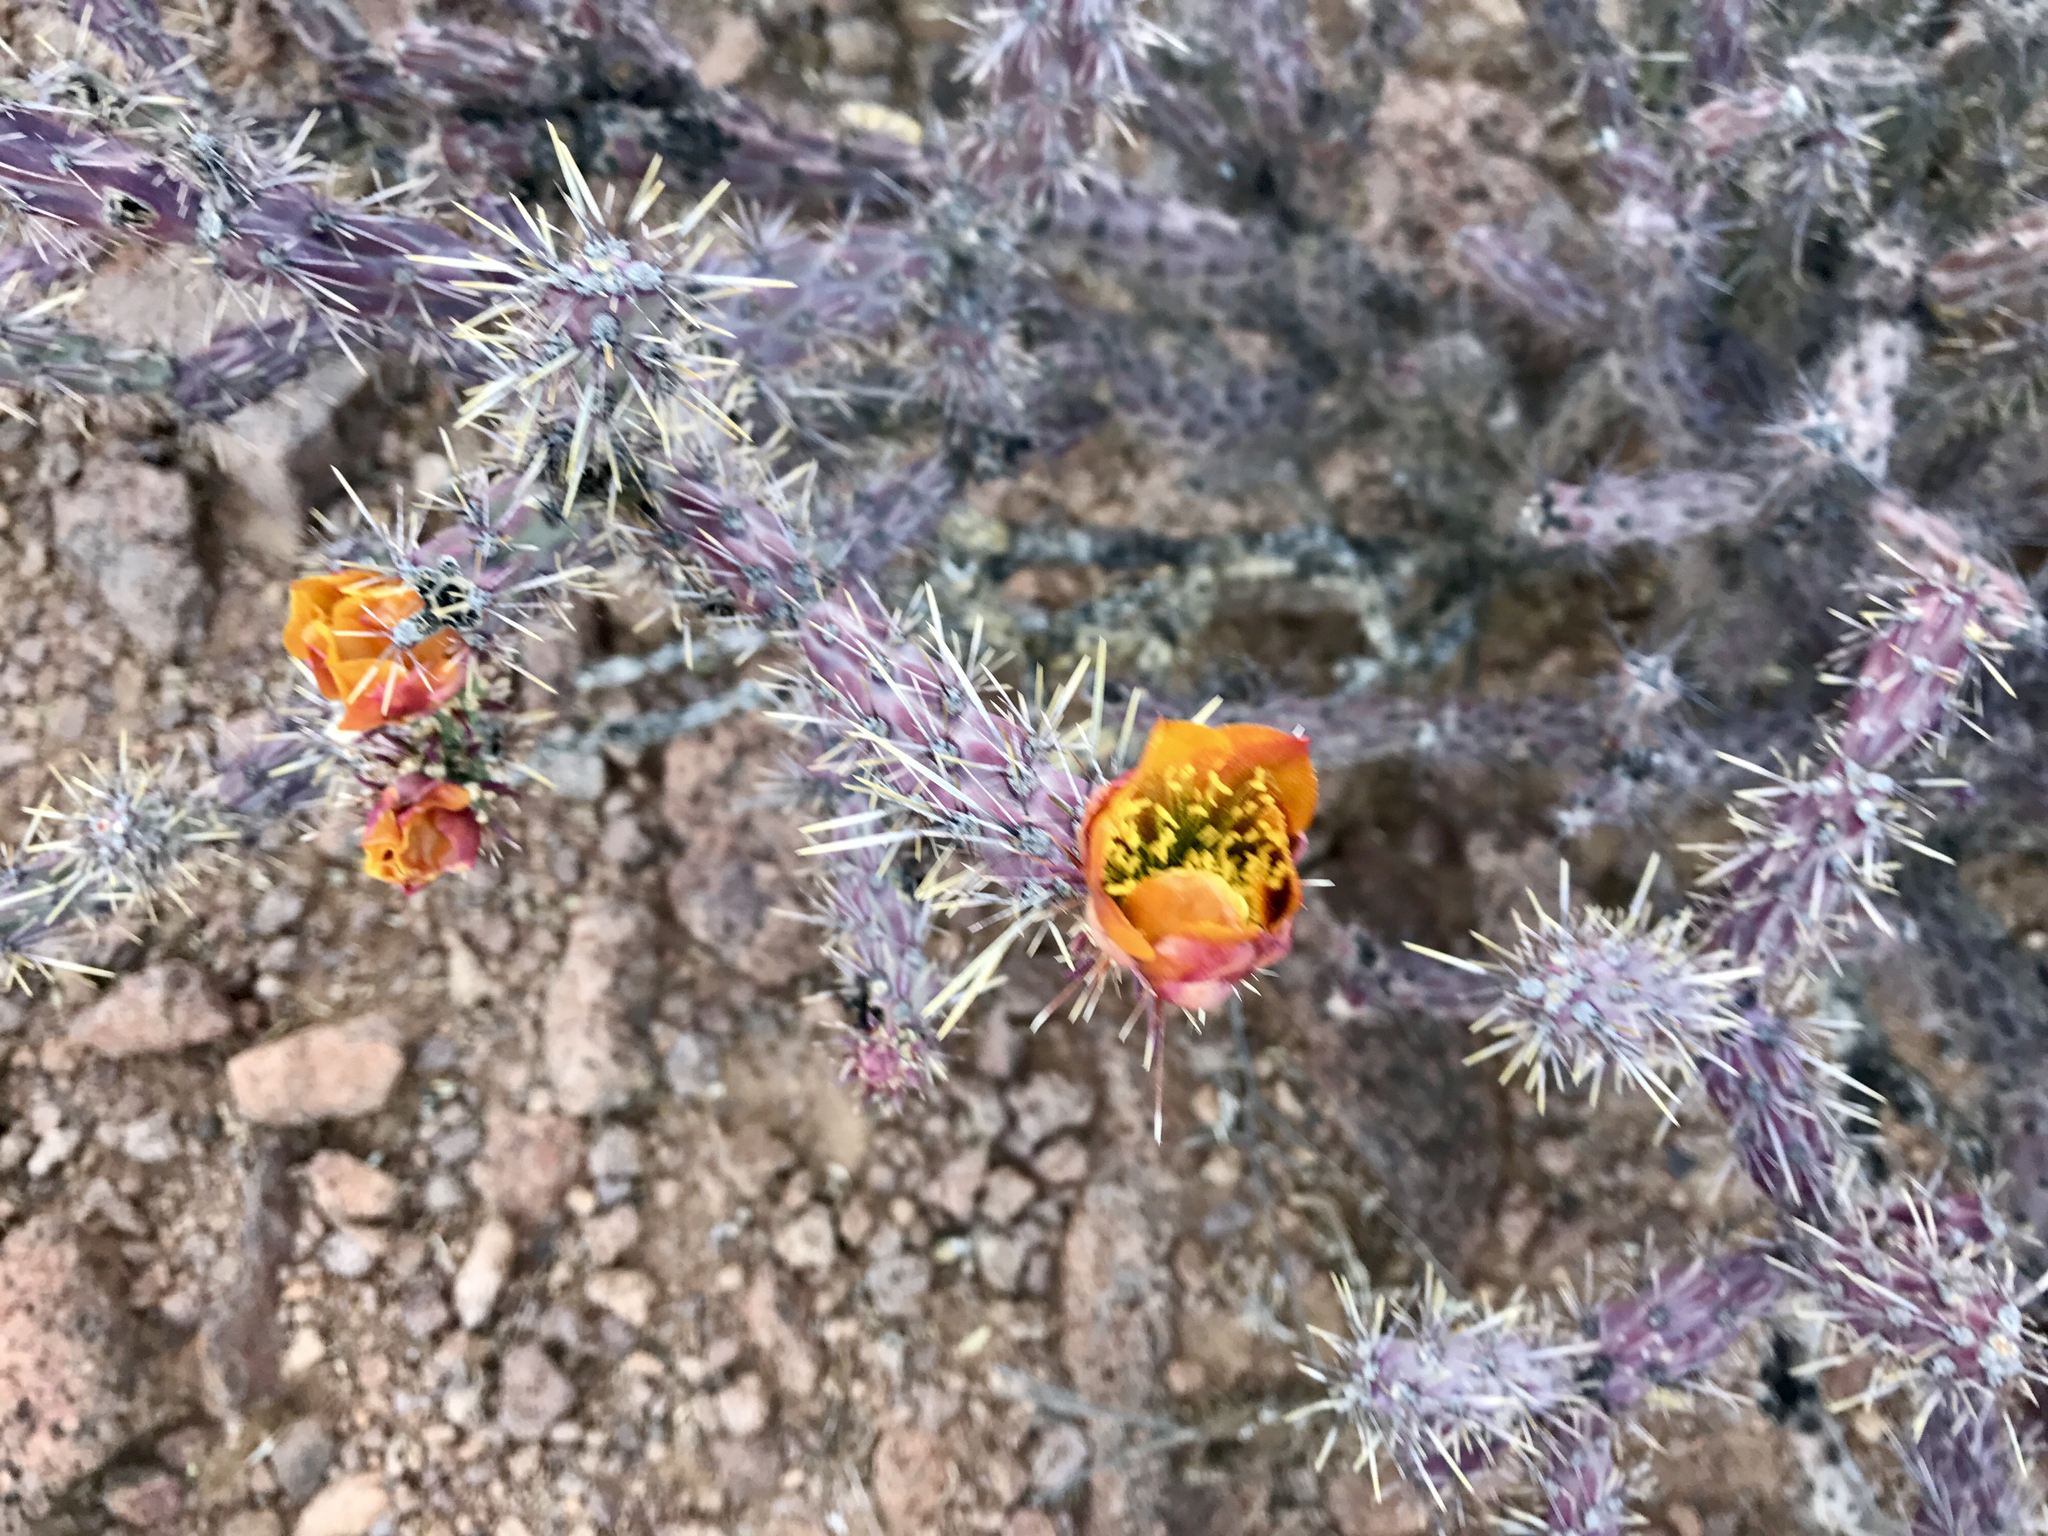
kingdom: Plantae
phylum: Tracheophyta
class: Magnoliopsida
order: Caryophyllales
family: Cactaceae
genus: Cylindropuntia
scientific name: Cylindropuntia thurberi
